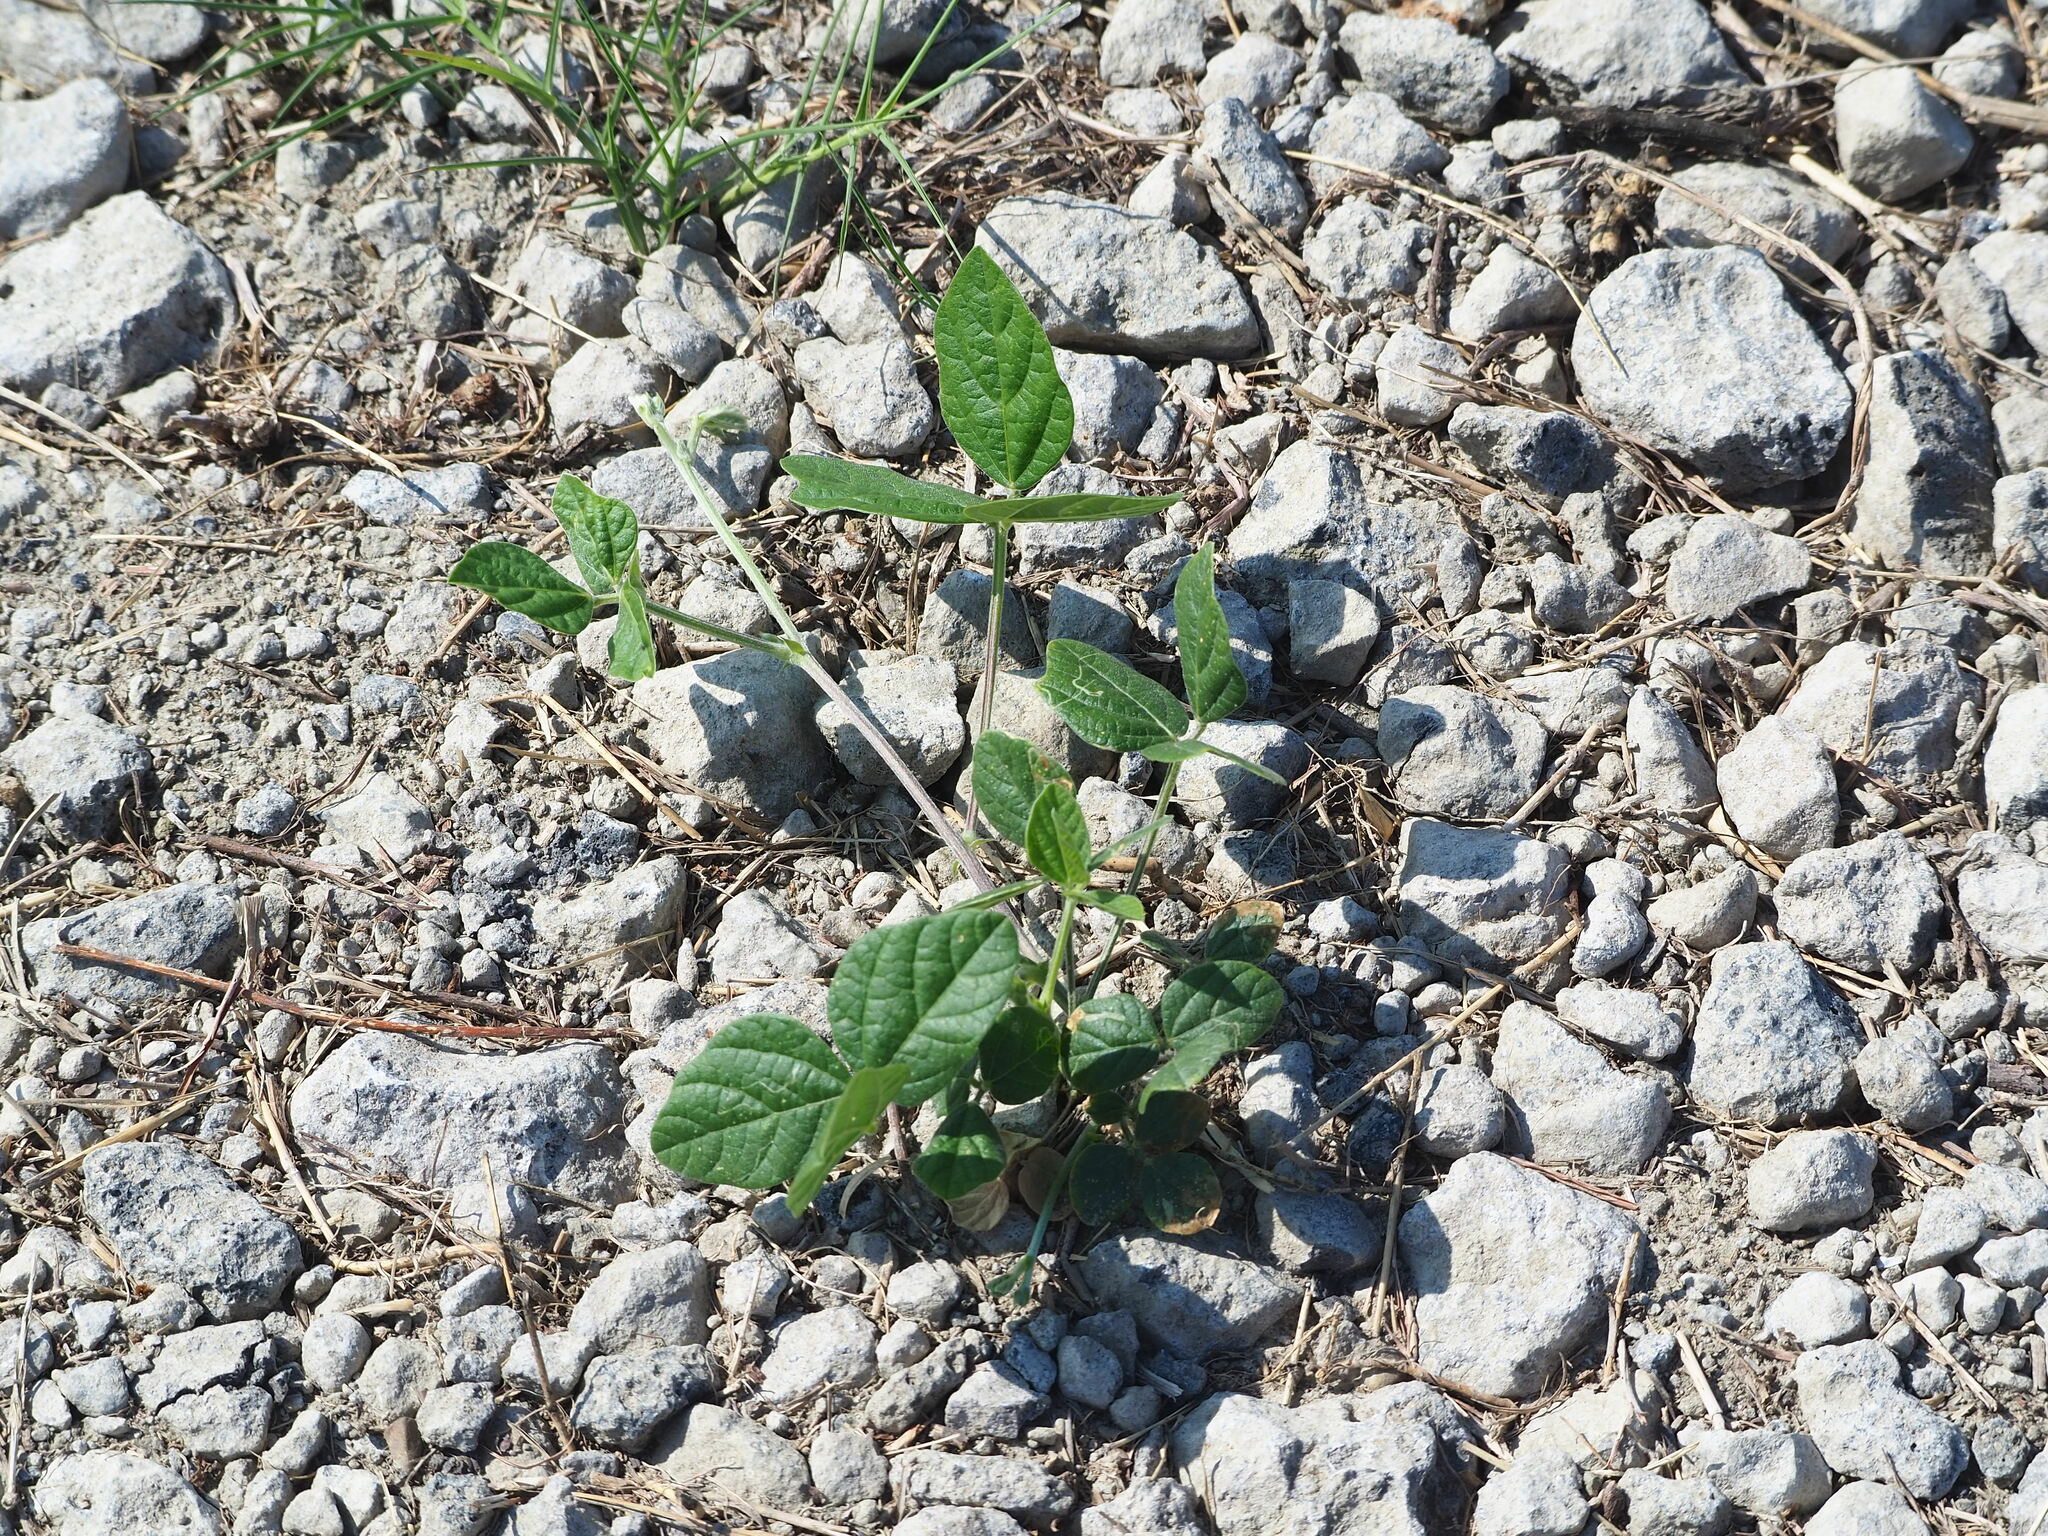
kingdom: Plantae
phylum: Tracheophyta
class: Magnoliopsida
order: Fabales
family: Fabaceae
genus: Macroptilium
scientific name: Macroptilium atropurpureum
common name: Purple bushbean
